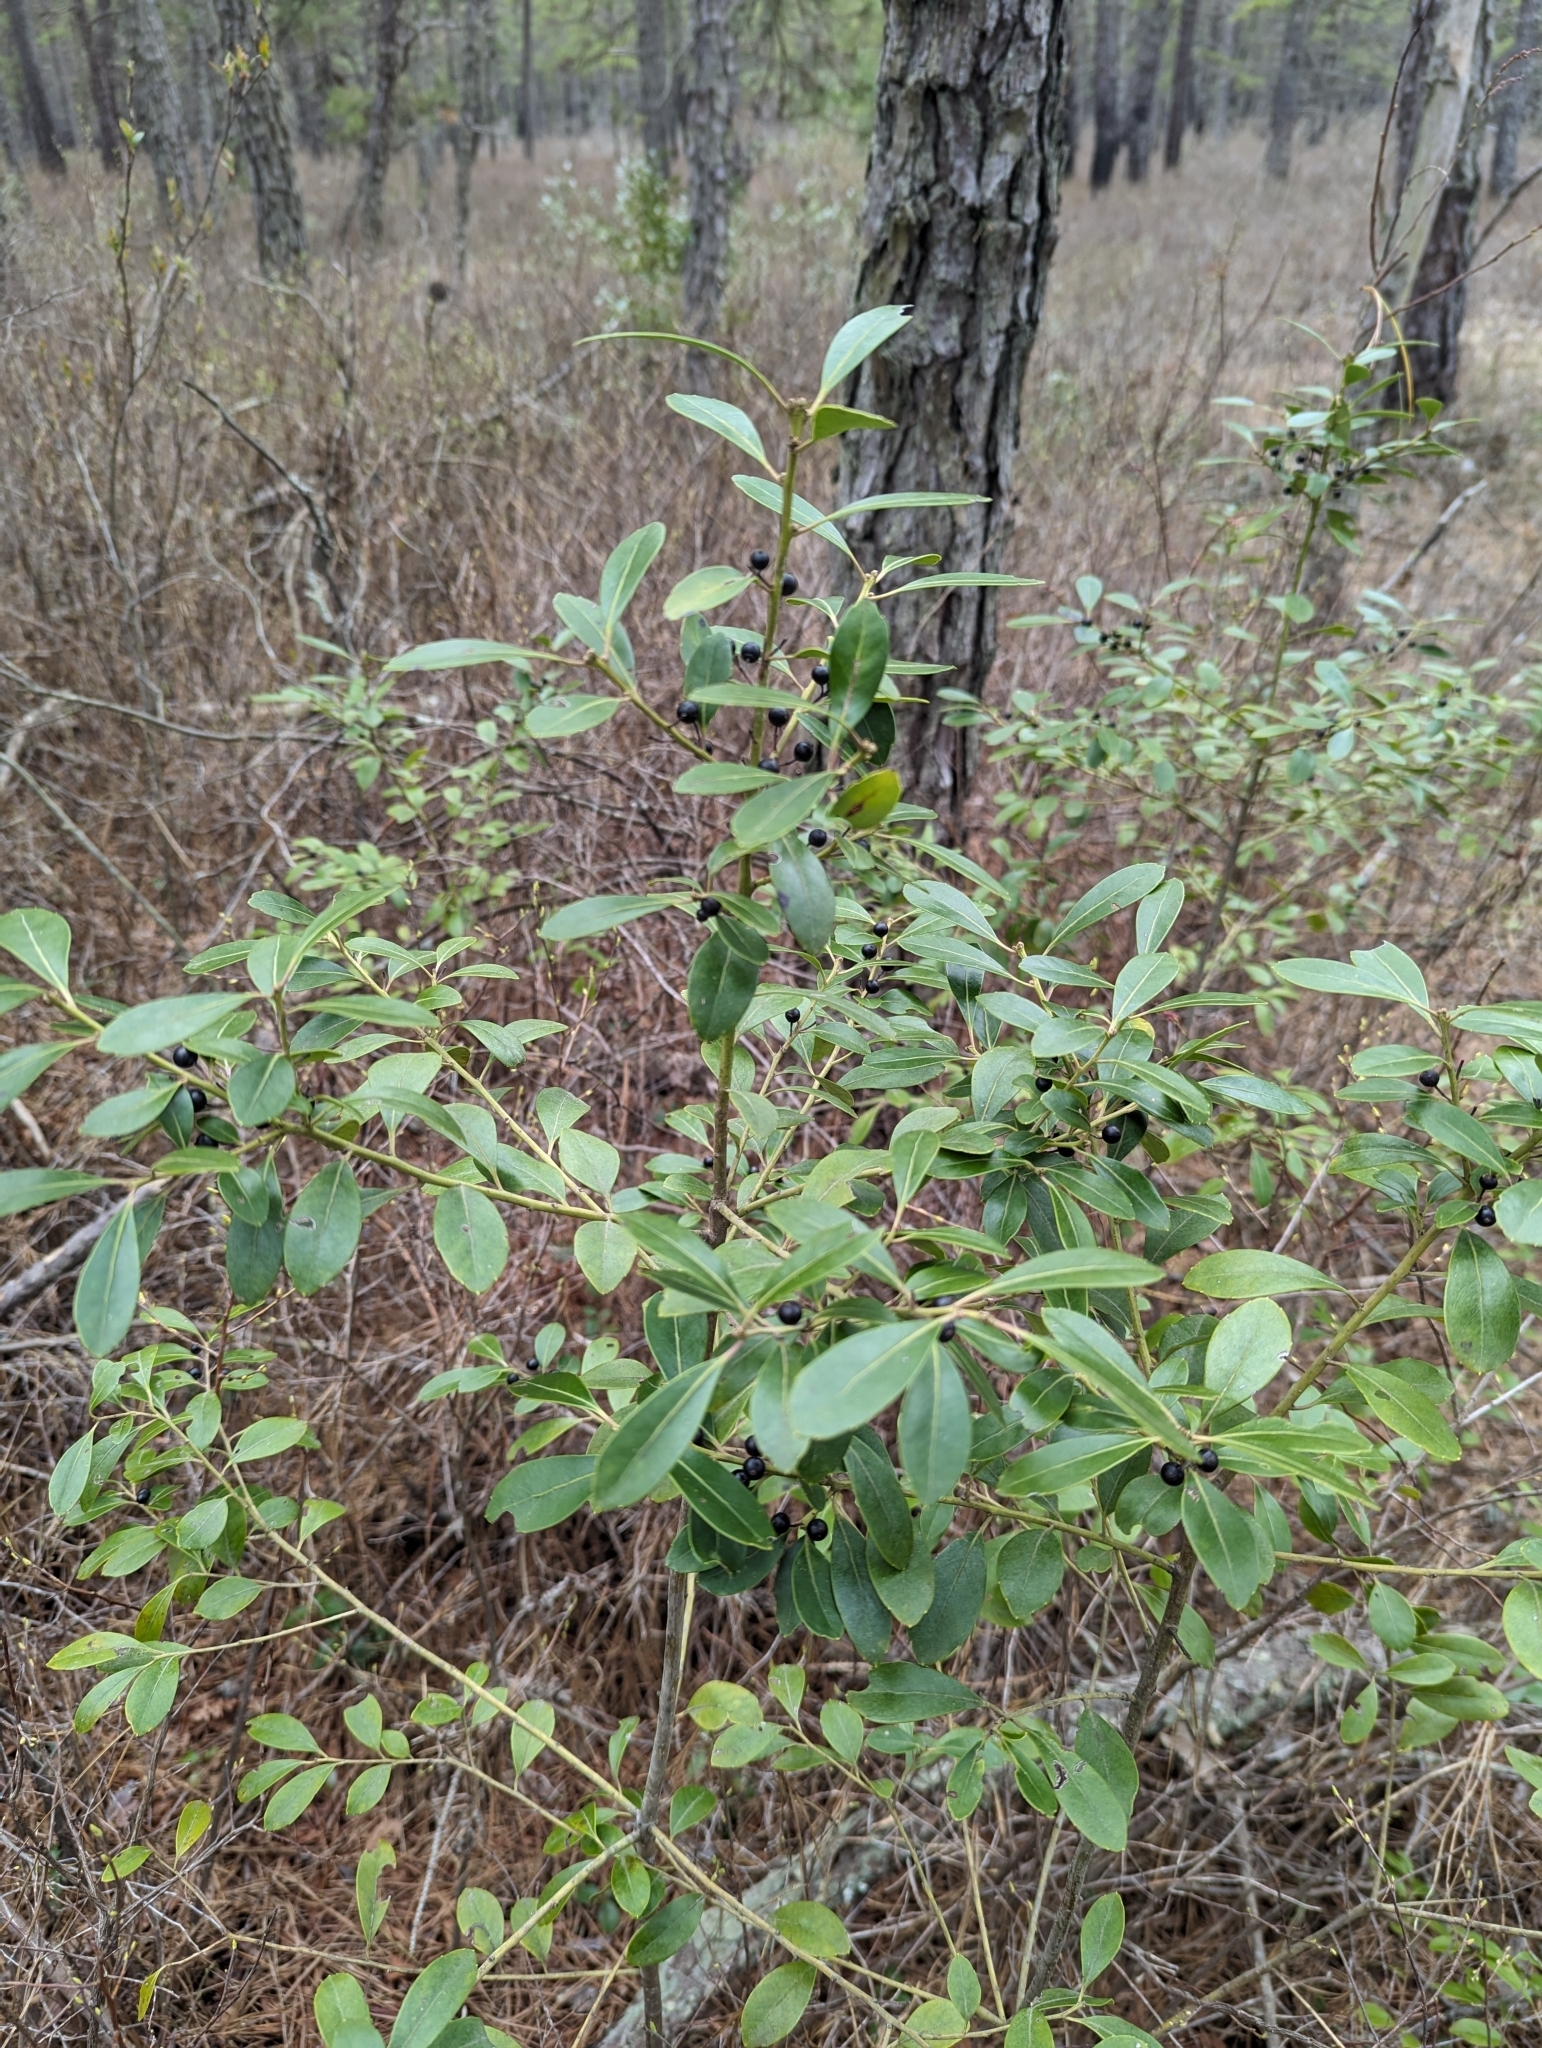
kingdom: Plantae
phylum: Tracheophyta
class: Magnoliopsida
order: Aquifoliales
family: Aquifoliaceae
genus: Ilex
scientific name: Ilex glabra
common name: Bitter gallberry
